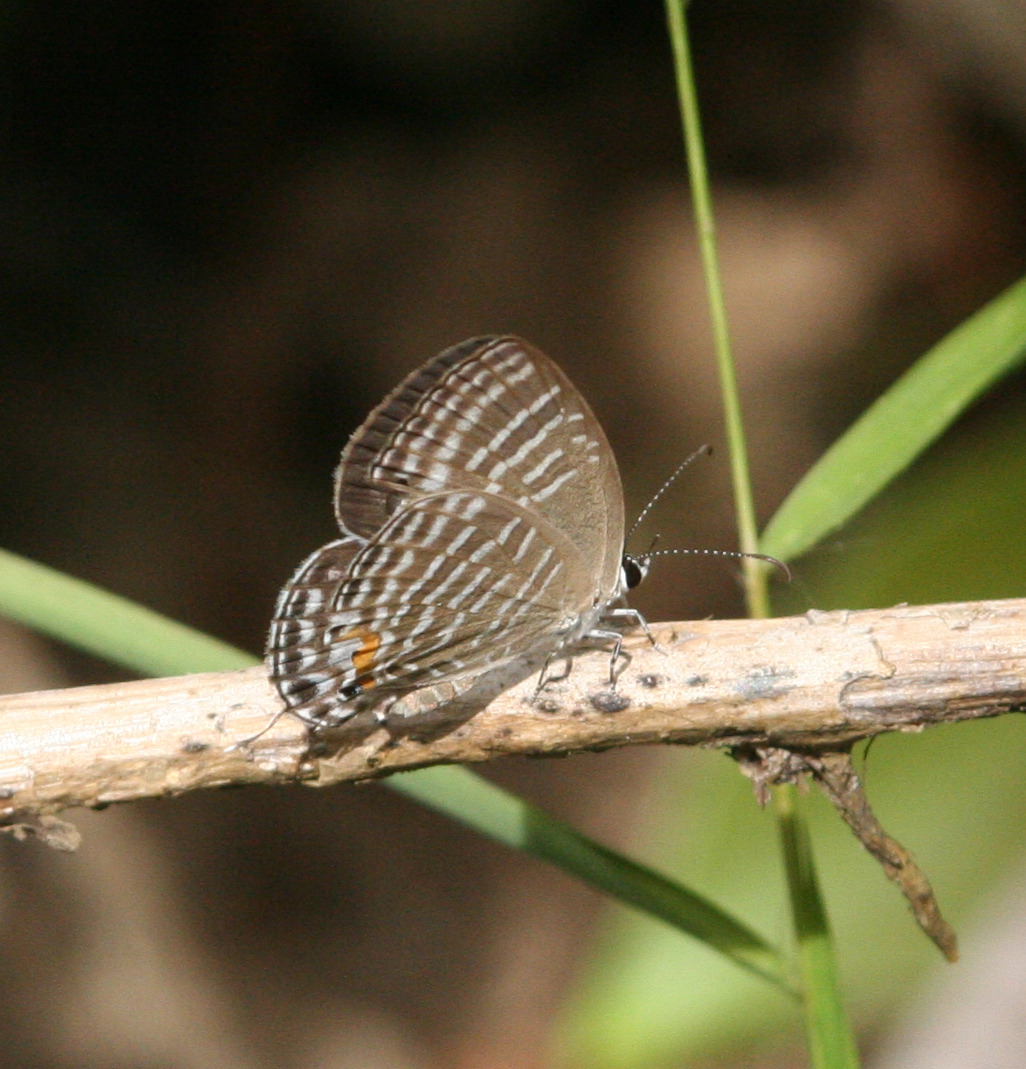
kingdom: Animalia
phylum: Arthropoda
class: Insecta
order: Lepidoptera
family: Lycaenidae
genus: Jamides
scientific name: Jamides celeno
